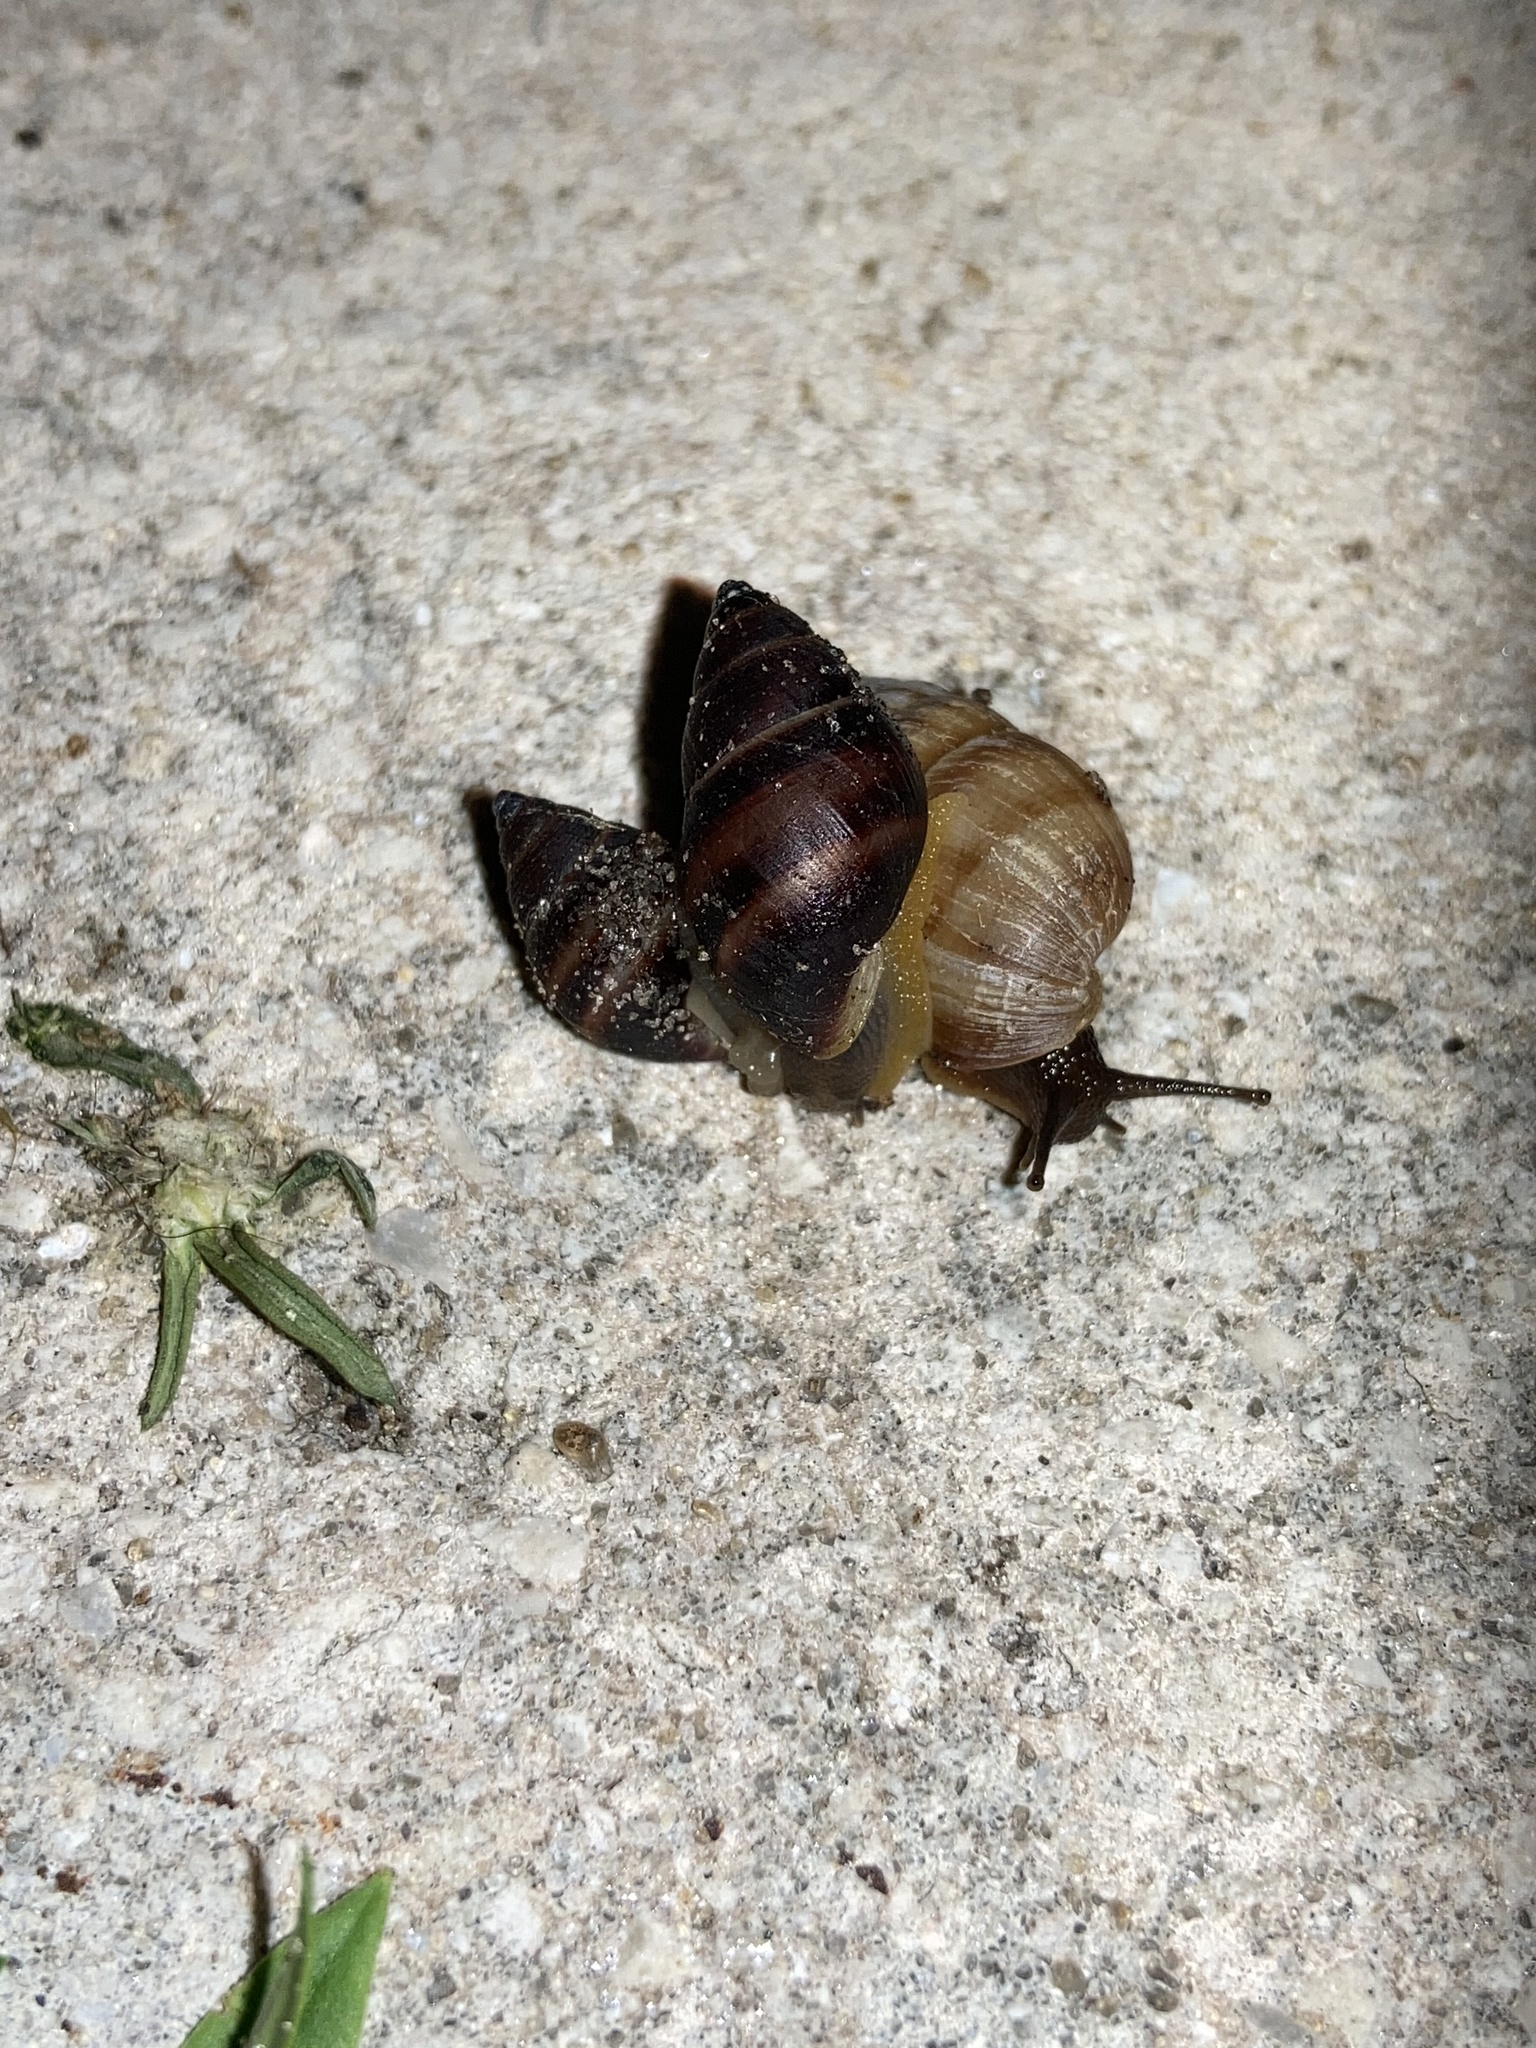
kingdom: Animalia
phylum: Mollusca
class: Gastropoda
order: Stylommatophora
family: Bulimulidae
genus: Bulimulus
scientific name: Bulimulus guadalupensis
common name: West indian bulimulus
